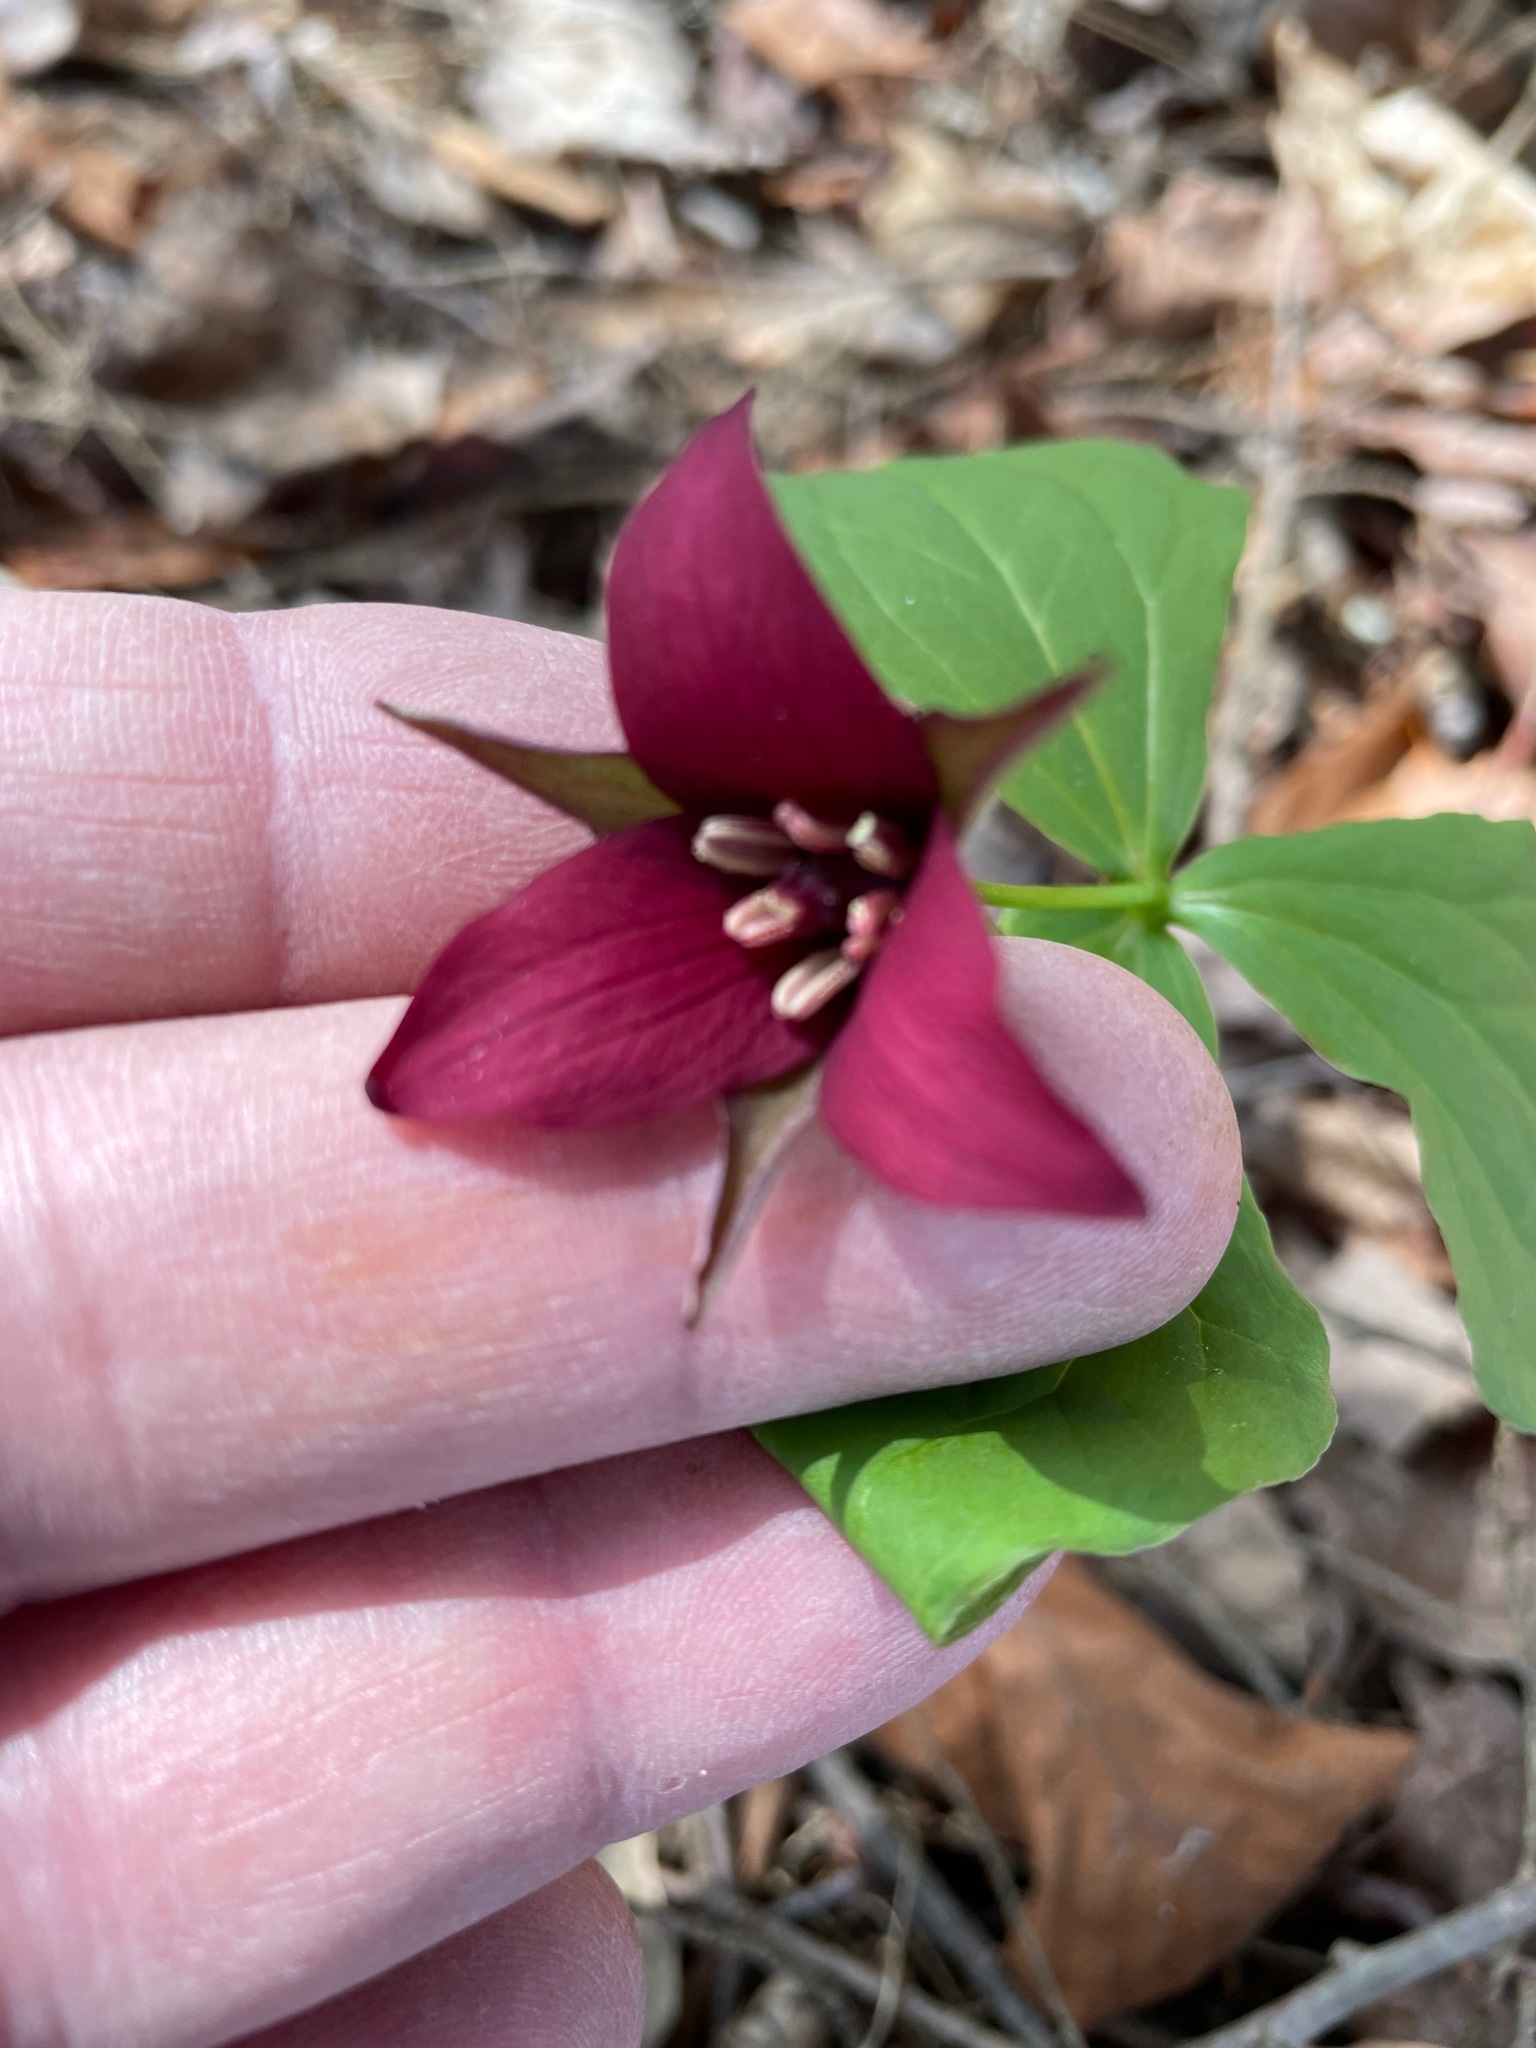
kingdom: Plantae
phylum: Tracheophyta
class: Liliopsida
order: Liliales
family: Melanthiaceae
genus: Trillium
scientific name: Trillium erectum
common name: Purple trillium
